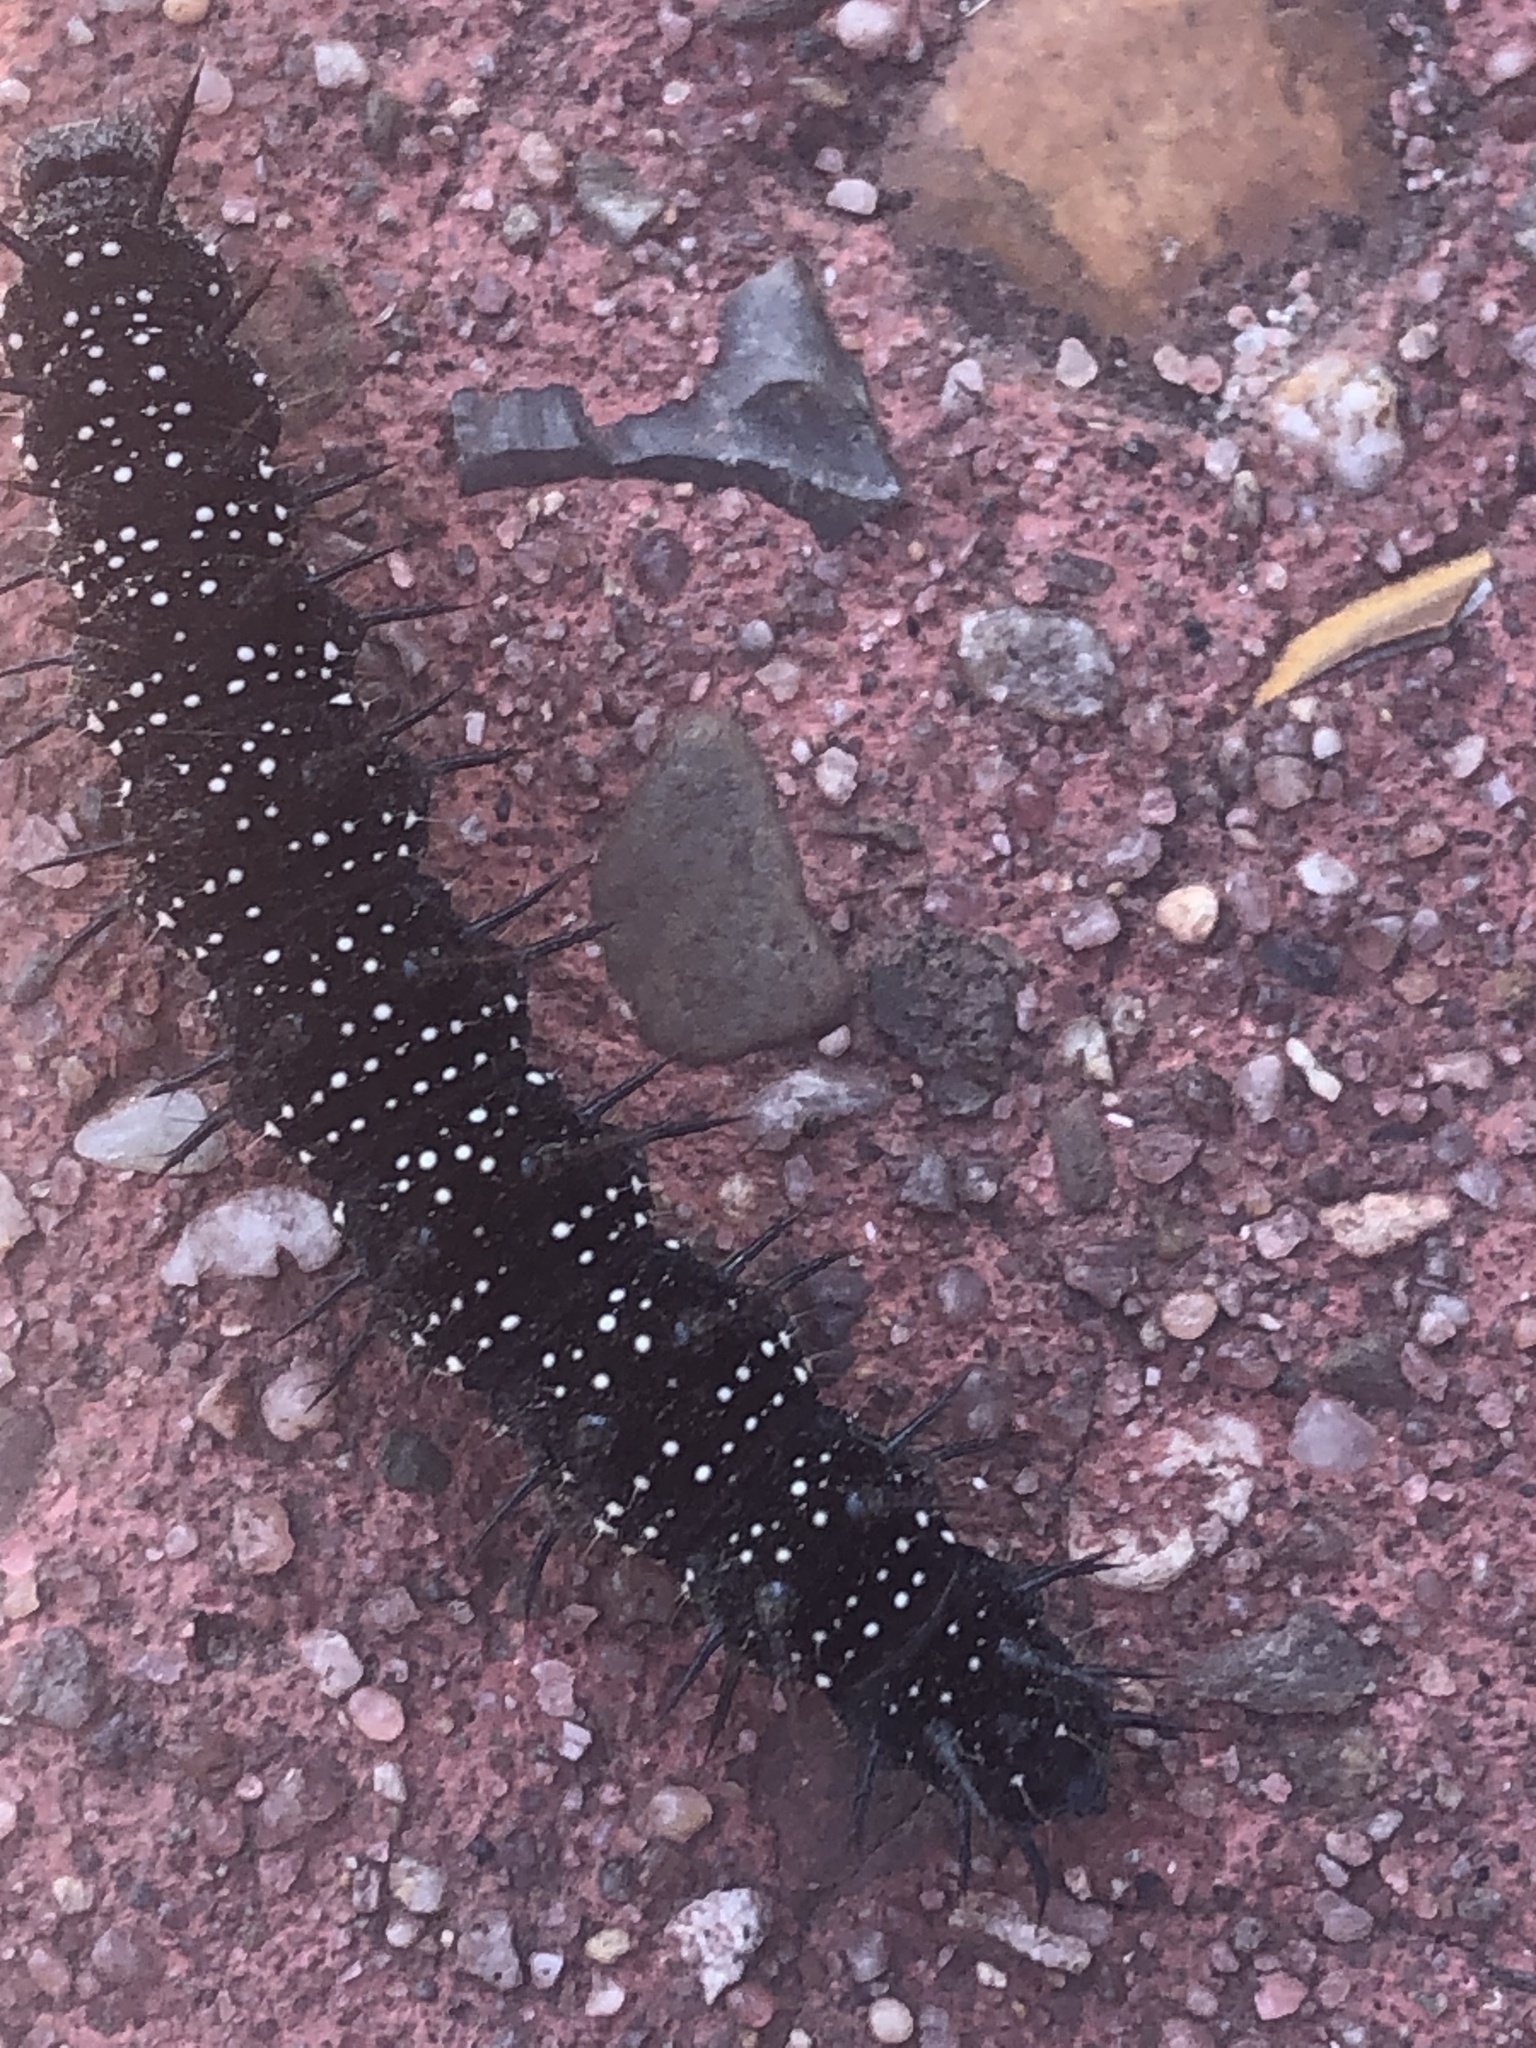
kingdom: Animalia
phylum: Arthropoda
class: Insecta
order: Lepidoptera
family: Nymphalidae
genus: Aglais
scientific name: Aglais io
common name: Peacock
